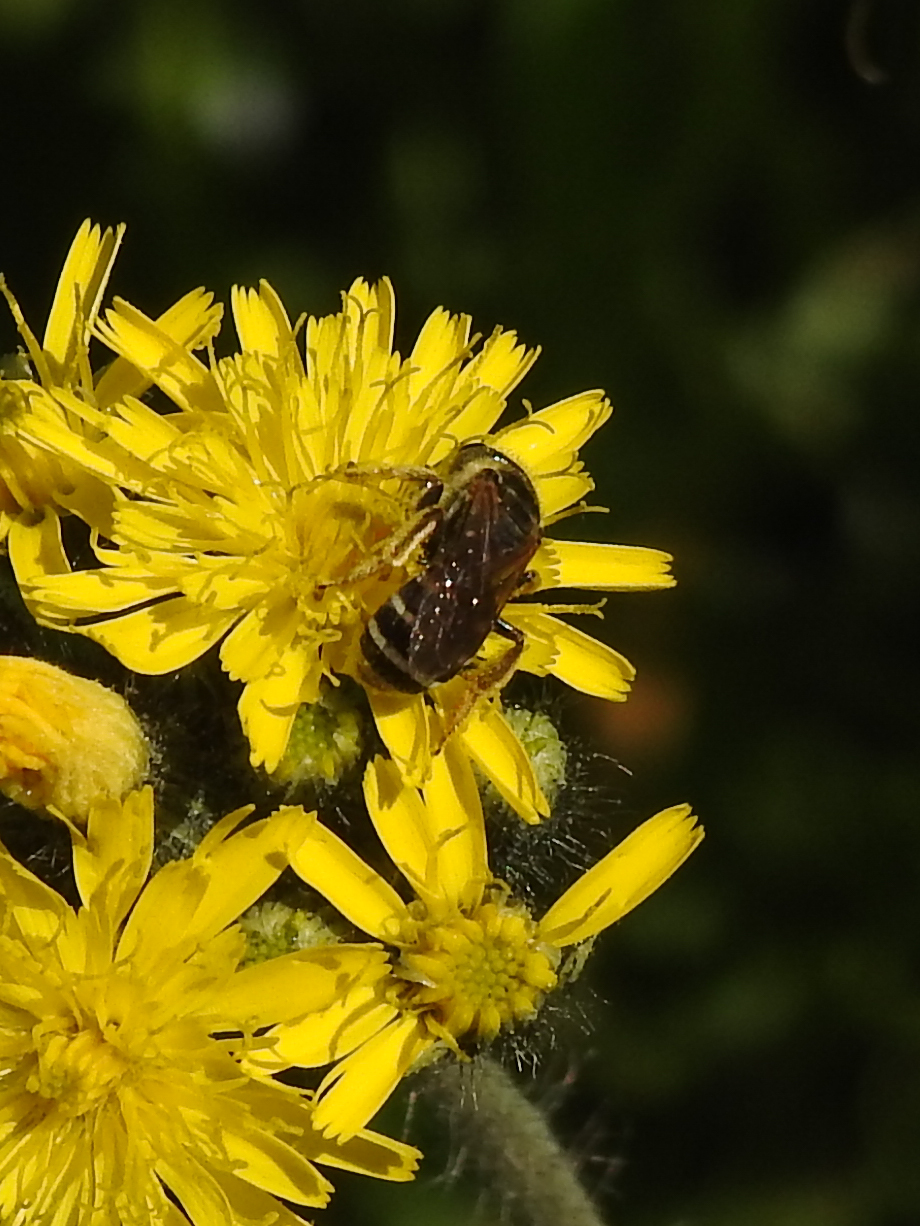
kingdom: Animalia
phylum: Arthropoda
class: Insecta
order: Hymenoptera
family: Halictidae
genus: Halictus
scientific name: Halictus ligatus
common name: Ligated furrow bee
